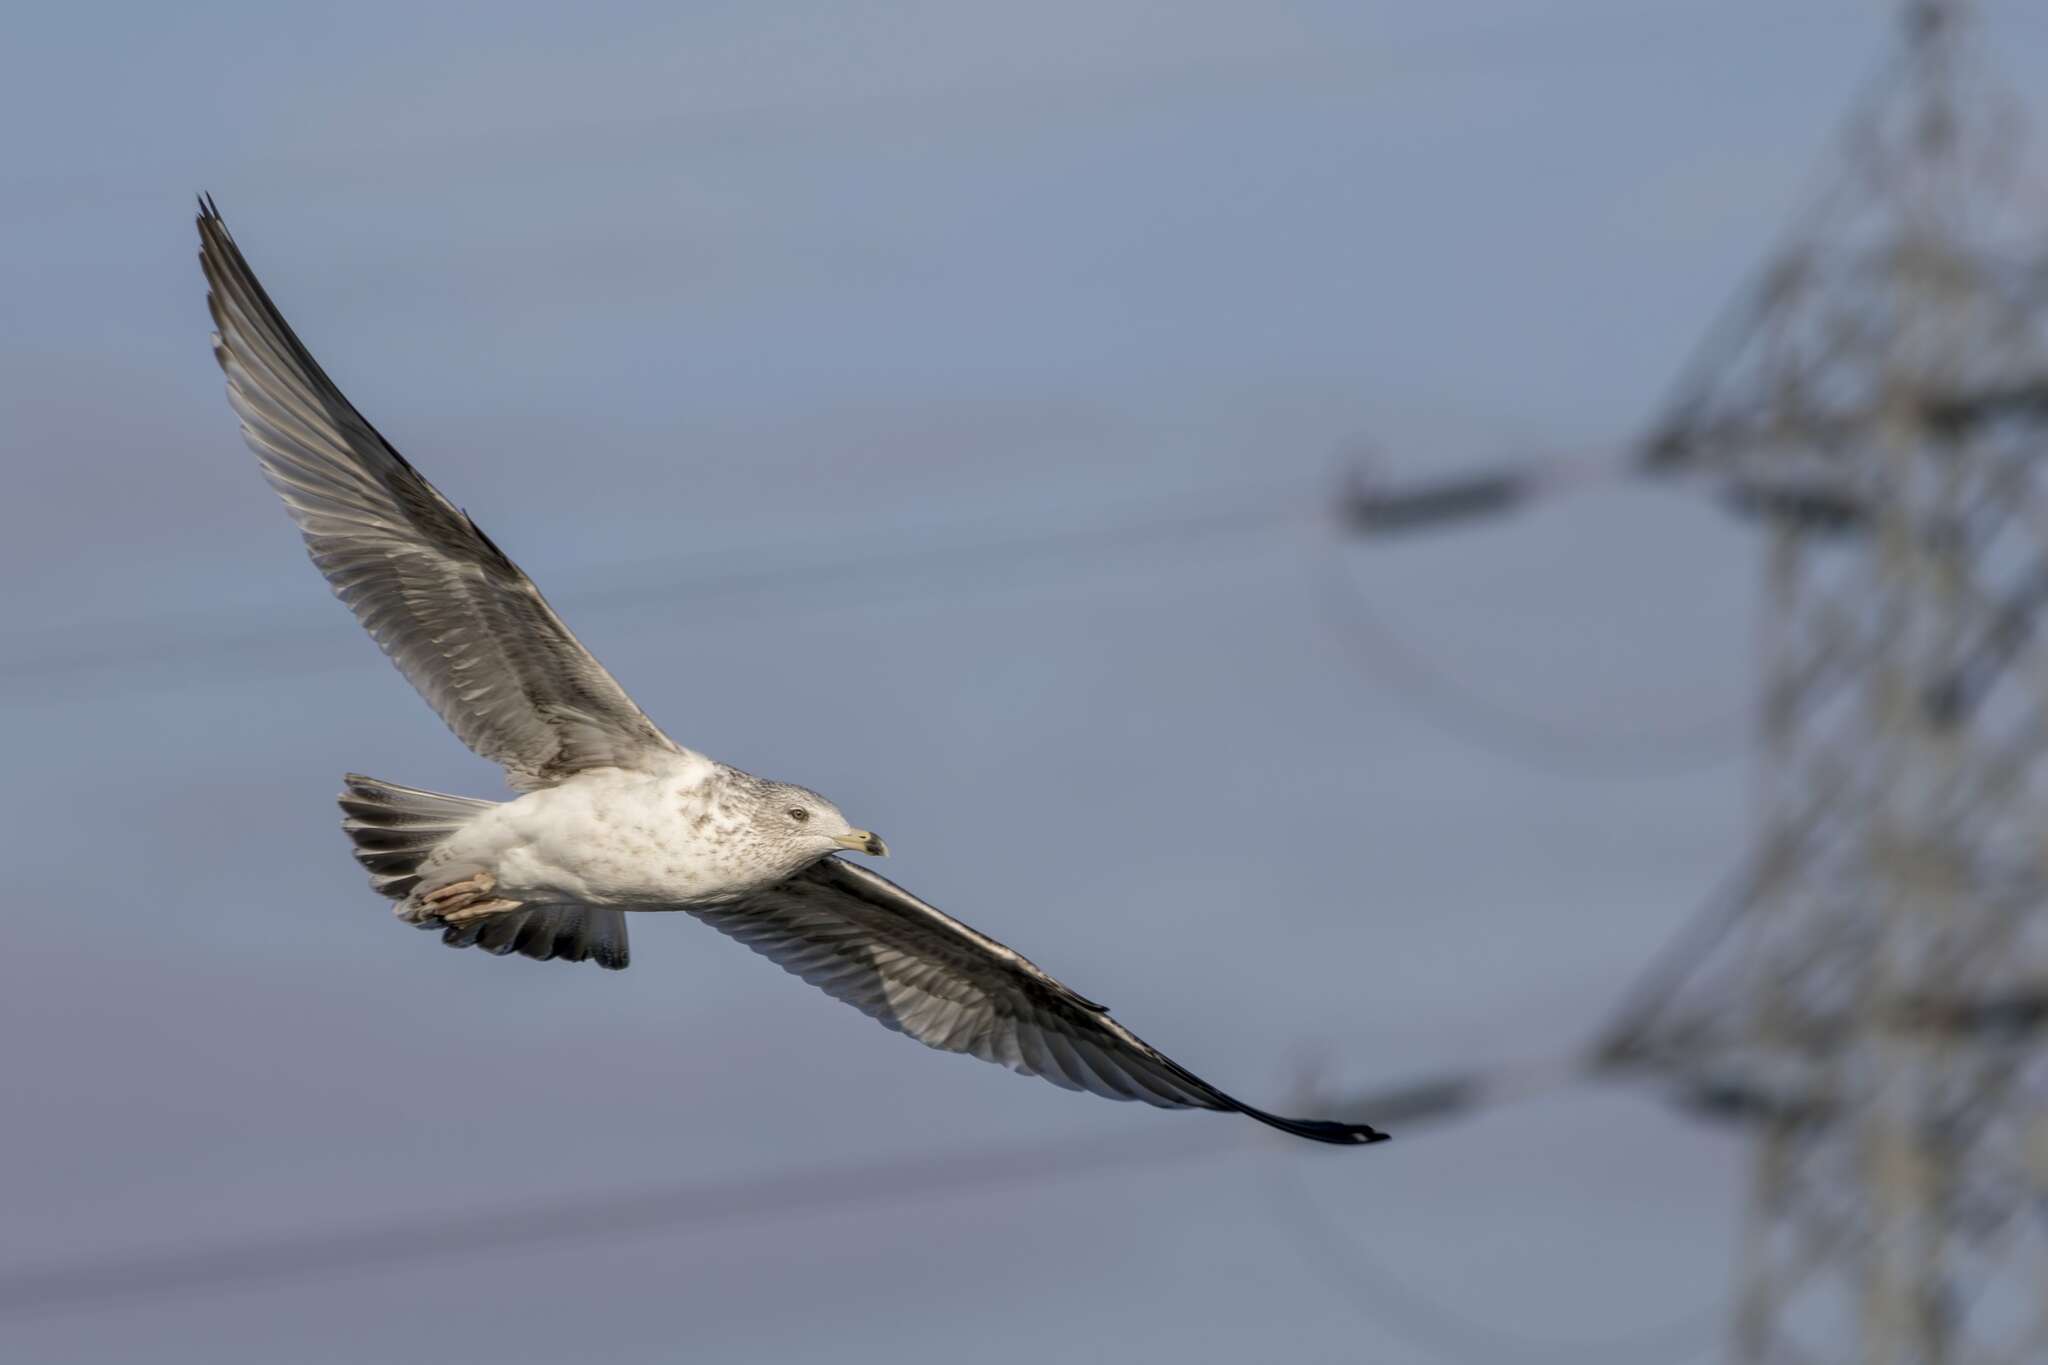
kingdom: Animalia
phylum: Chordata
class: Aves
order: Charadriiformes
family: Laridae
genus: Larus
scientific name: Larus argentatus
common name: Herring gull
